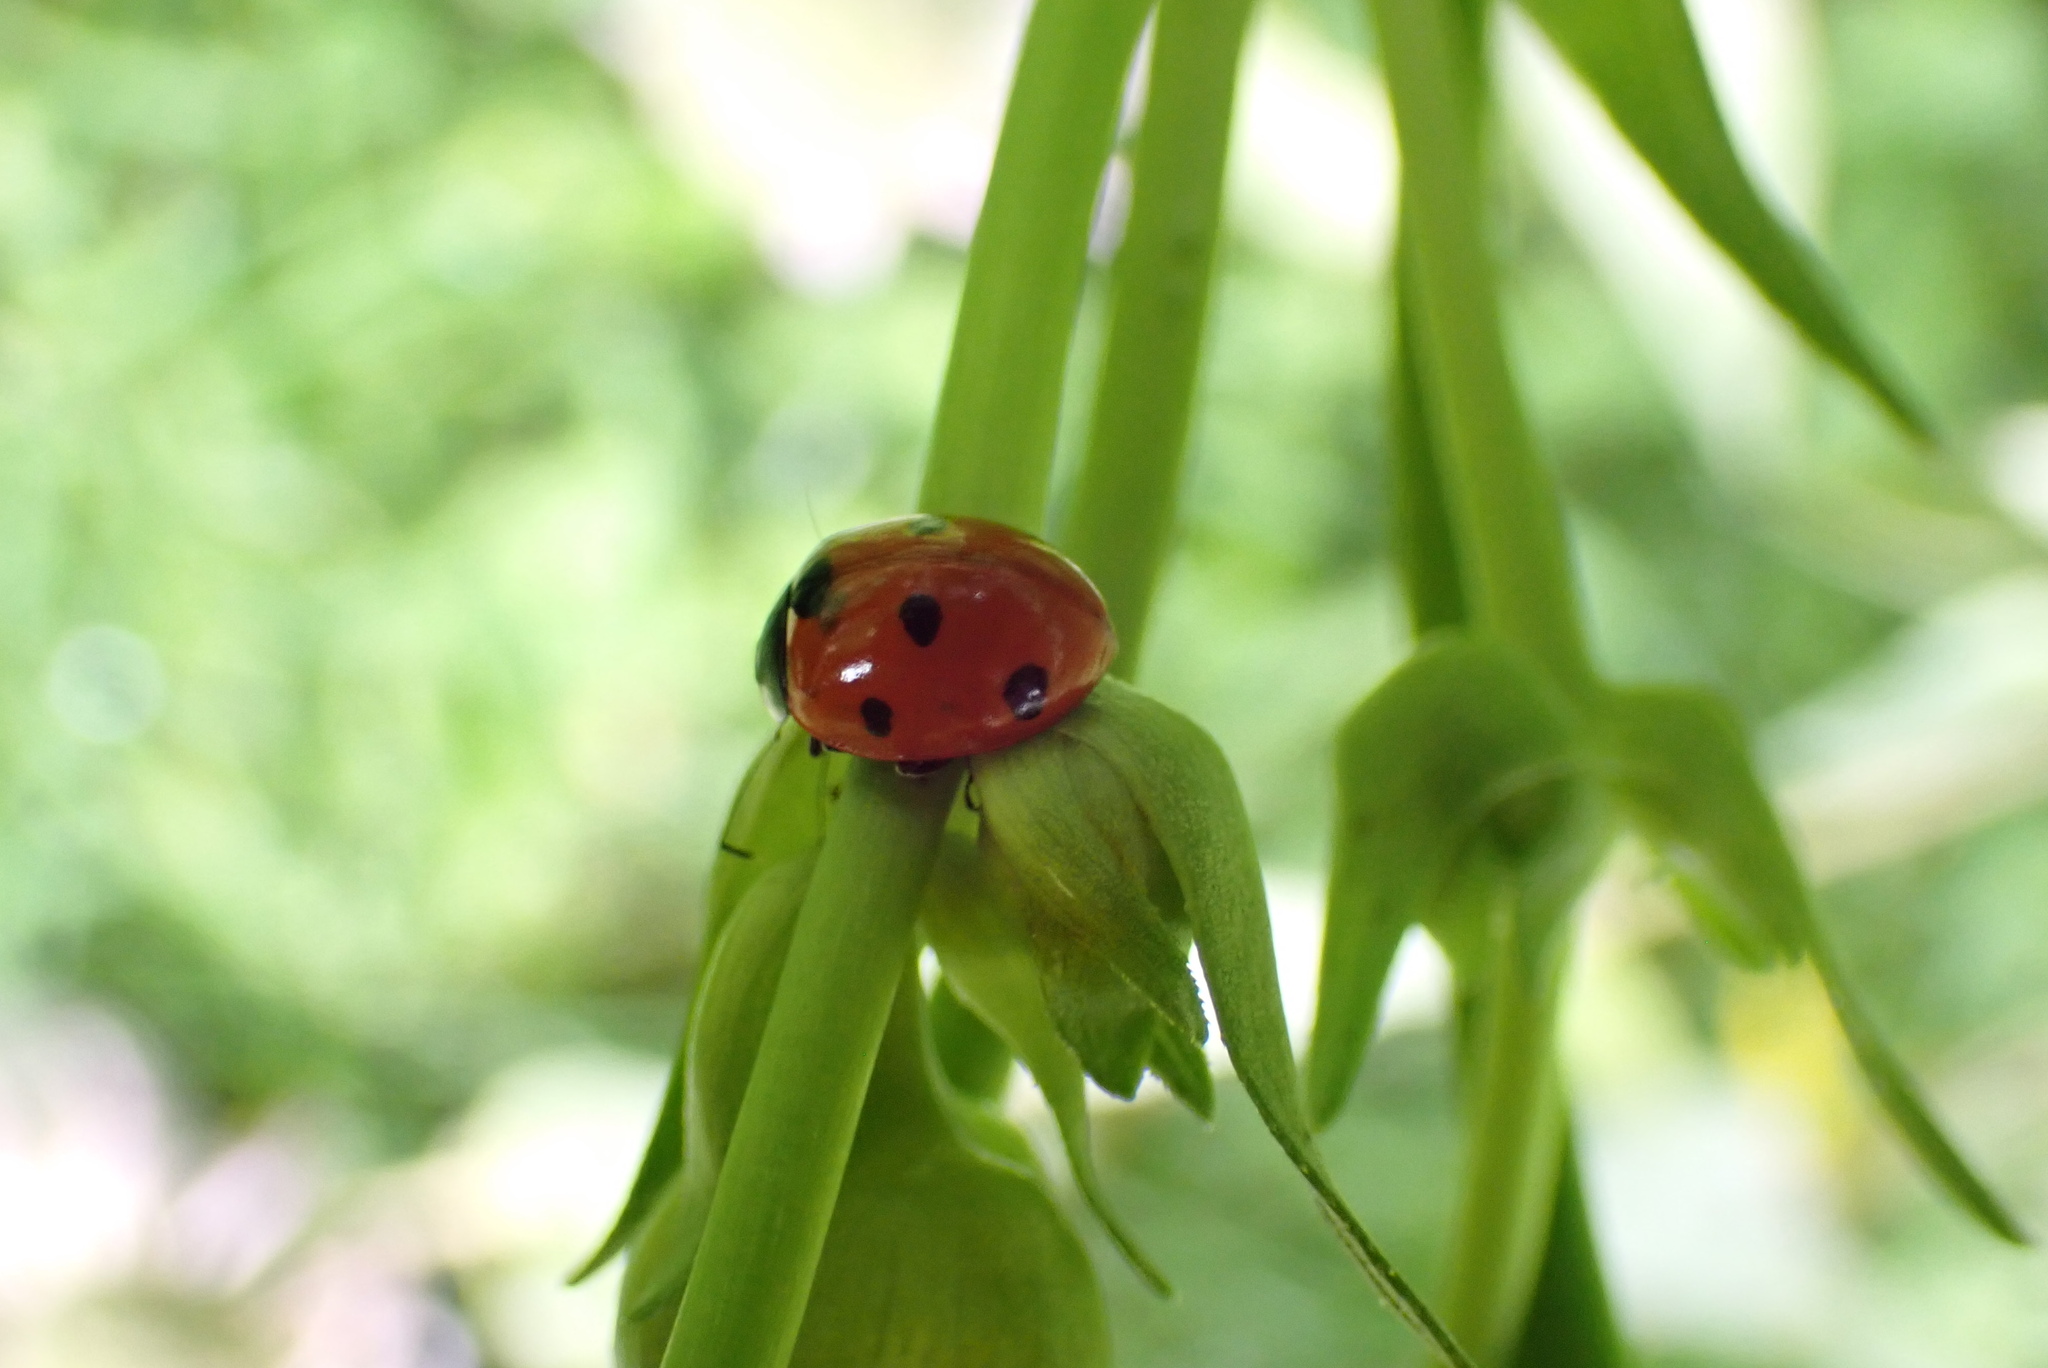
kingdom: Animalia
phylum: Arthropoda
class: Insecta
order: Coleoptera
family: Coccinellidae
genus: Coccinella
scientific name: Coccinella septempunctata
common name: Sevenspotted lady beetle
